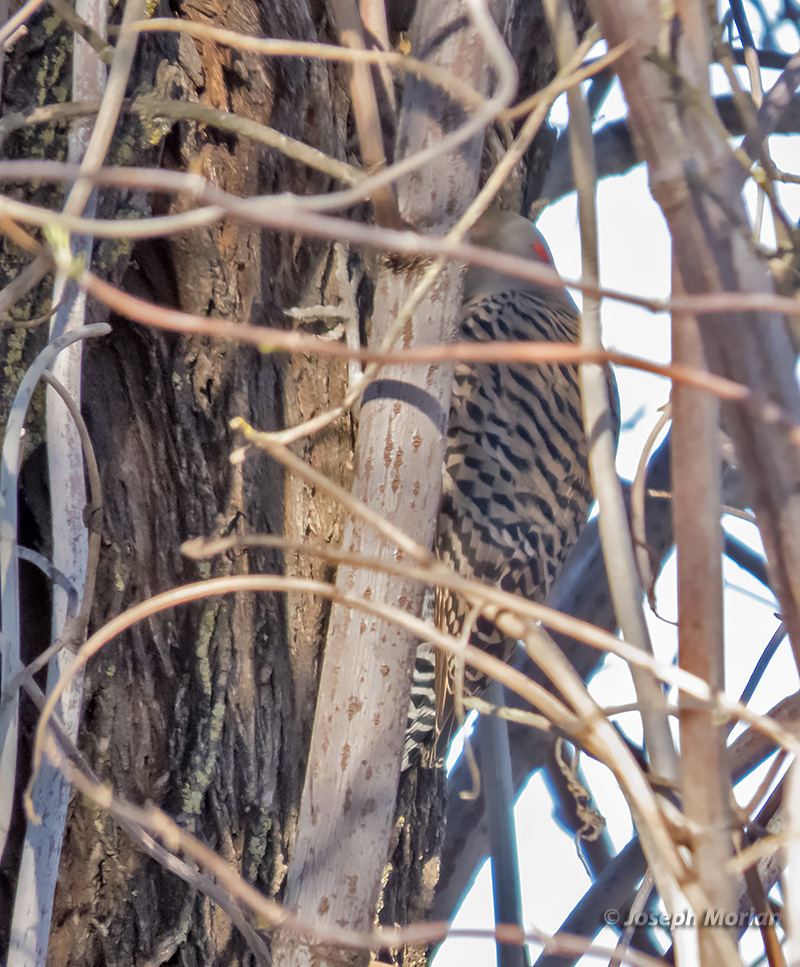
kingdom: Animalia
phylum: Chordata
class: Aves
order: Piciformes
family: Picidae
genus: Colaptes
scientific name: Colaptes auratus
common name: Northern flicker
